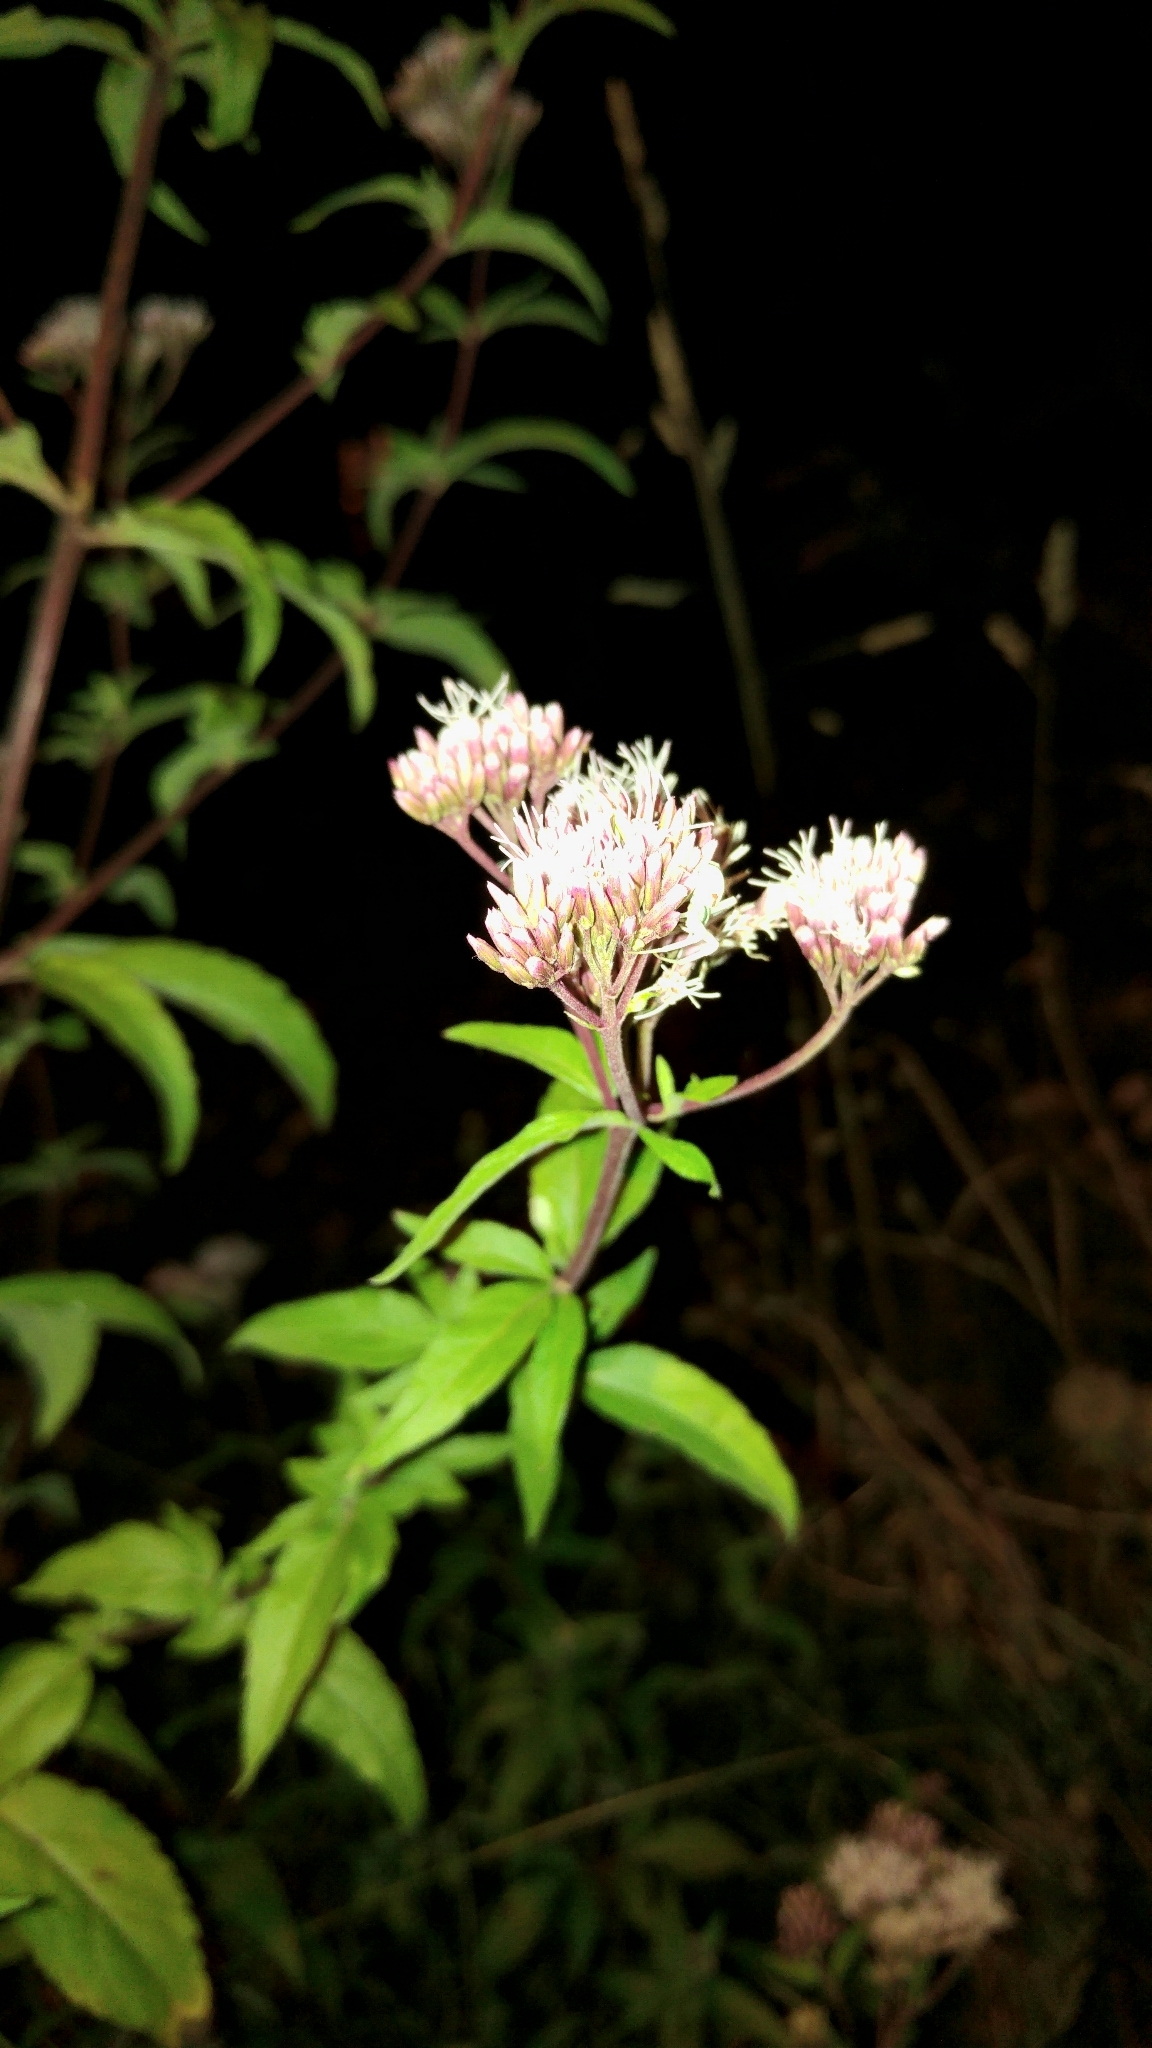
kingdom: Plantae
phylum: Tracheophyta
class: Magnoliopsida
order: Asterales
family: Asteraceae
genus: Eupatorium
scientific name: Eupatorium cannabinum
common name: Hemp-agrimony
